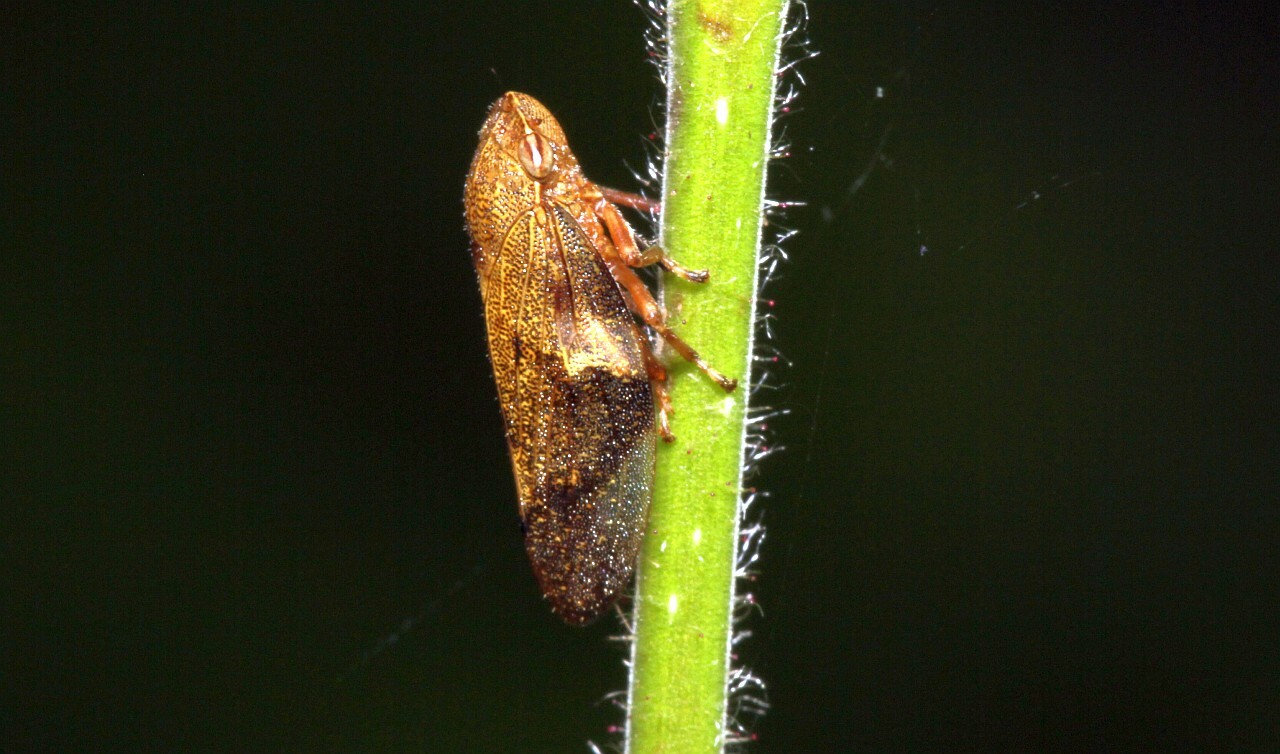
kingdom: Animalia
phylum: Arthropoda
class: Insecta
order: Hemiptera
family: Aphrophoridae
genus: Aphrophora
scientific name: Aphrophora alni
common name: European alder spittlebug
